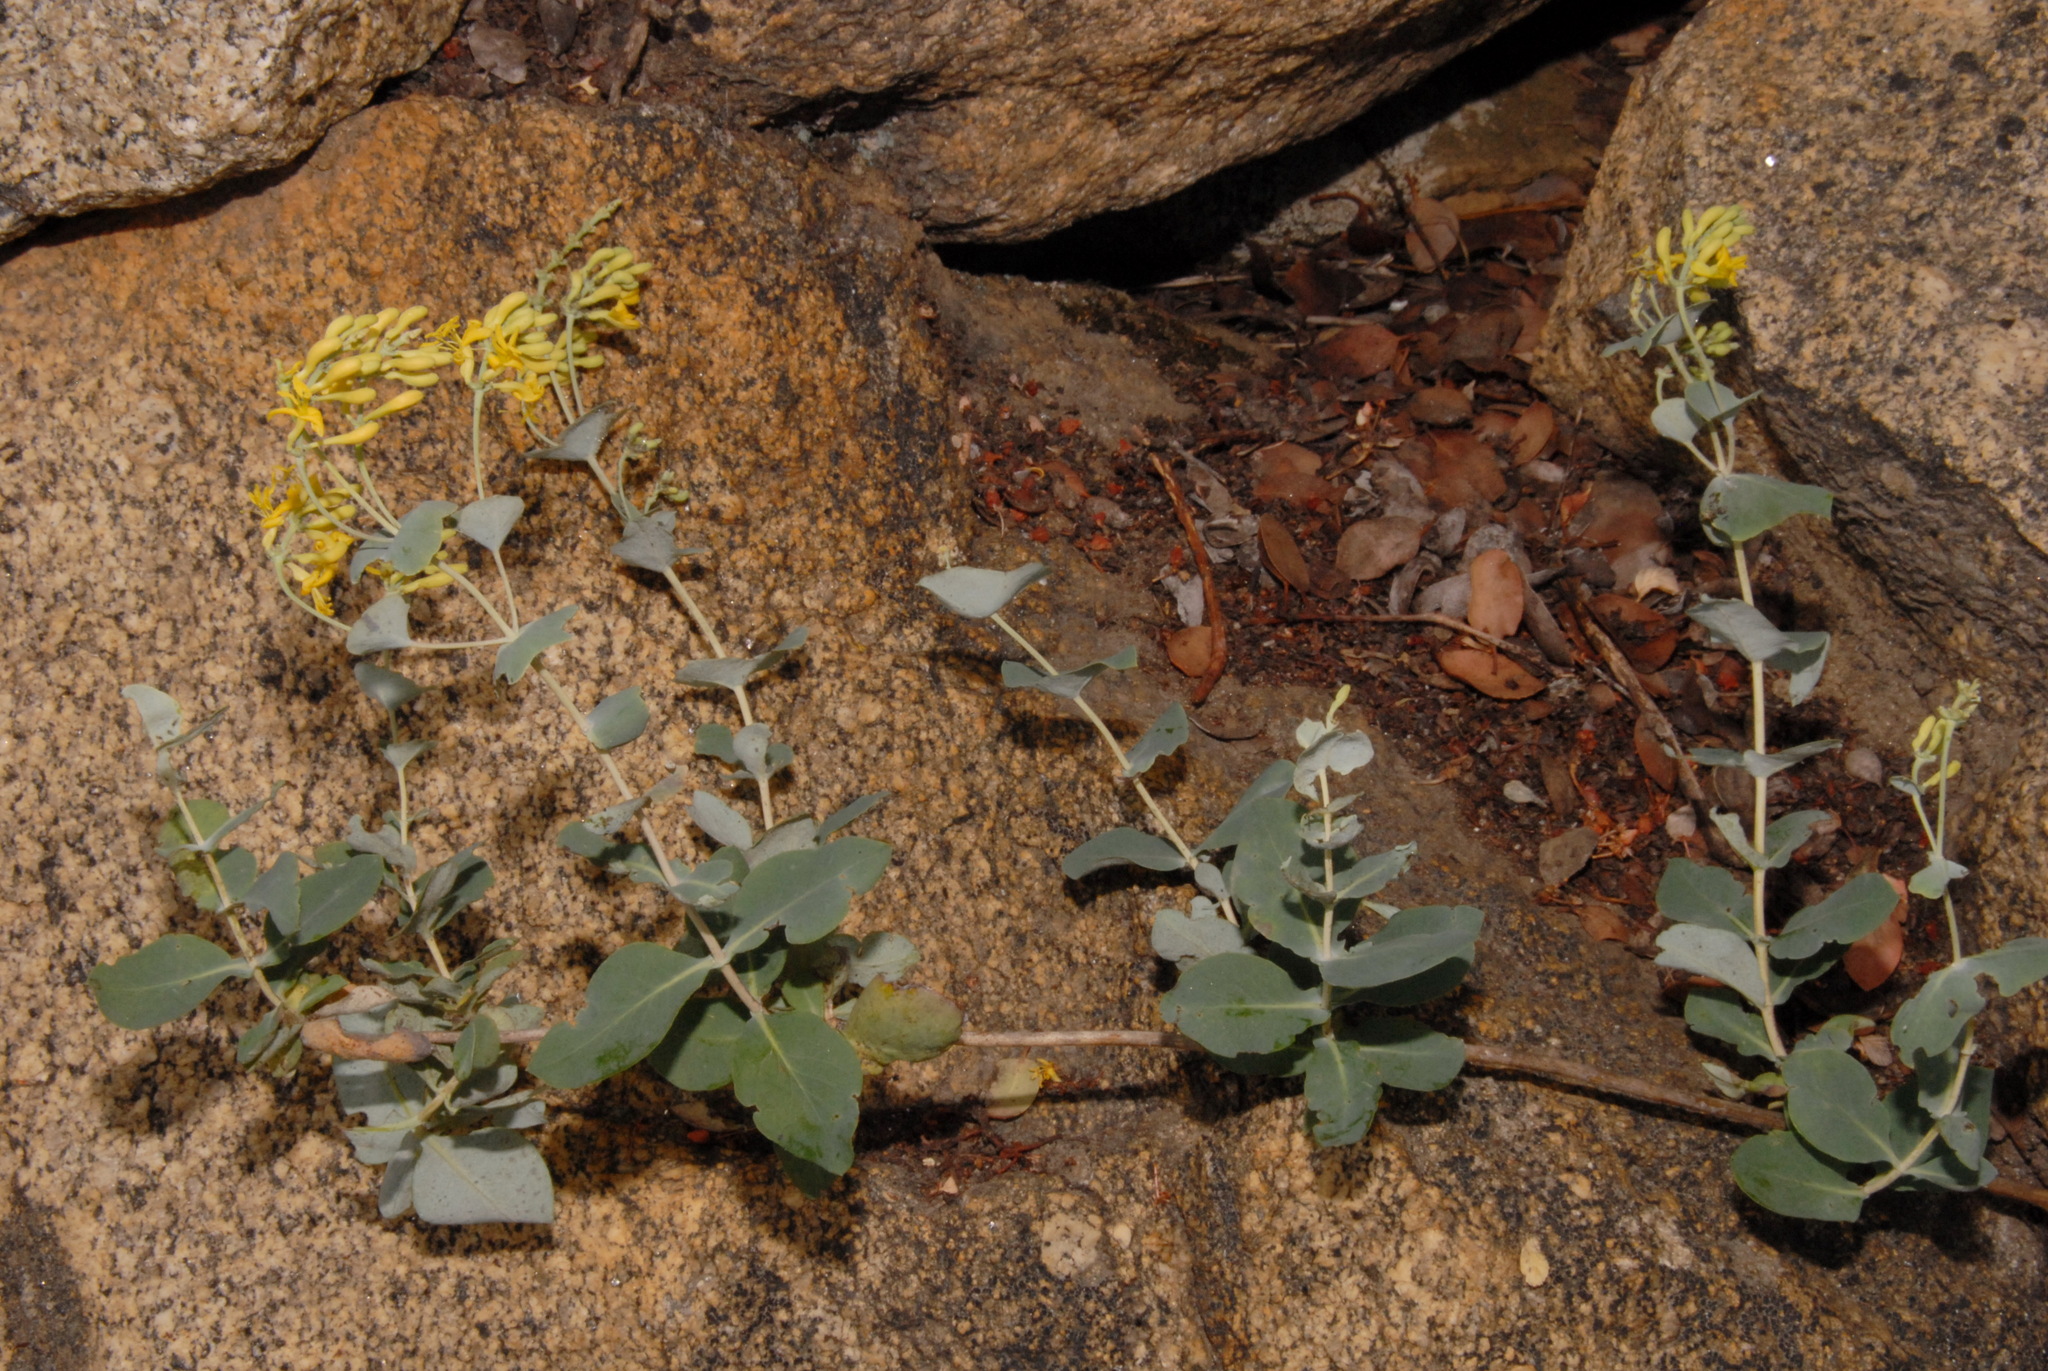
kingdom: Plantae
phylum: Tracheophyta
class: Magnoliopsida
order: Dipsacales
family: Caprifoliaceae
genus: Lonicera
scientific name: Lonicera interrupta
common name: Chaparral honeysuckle
